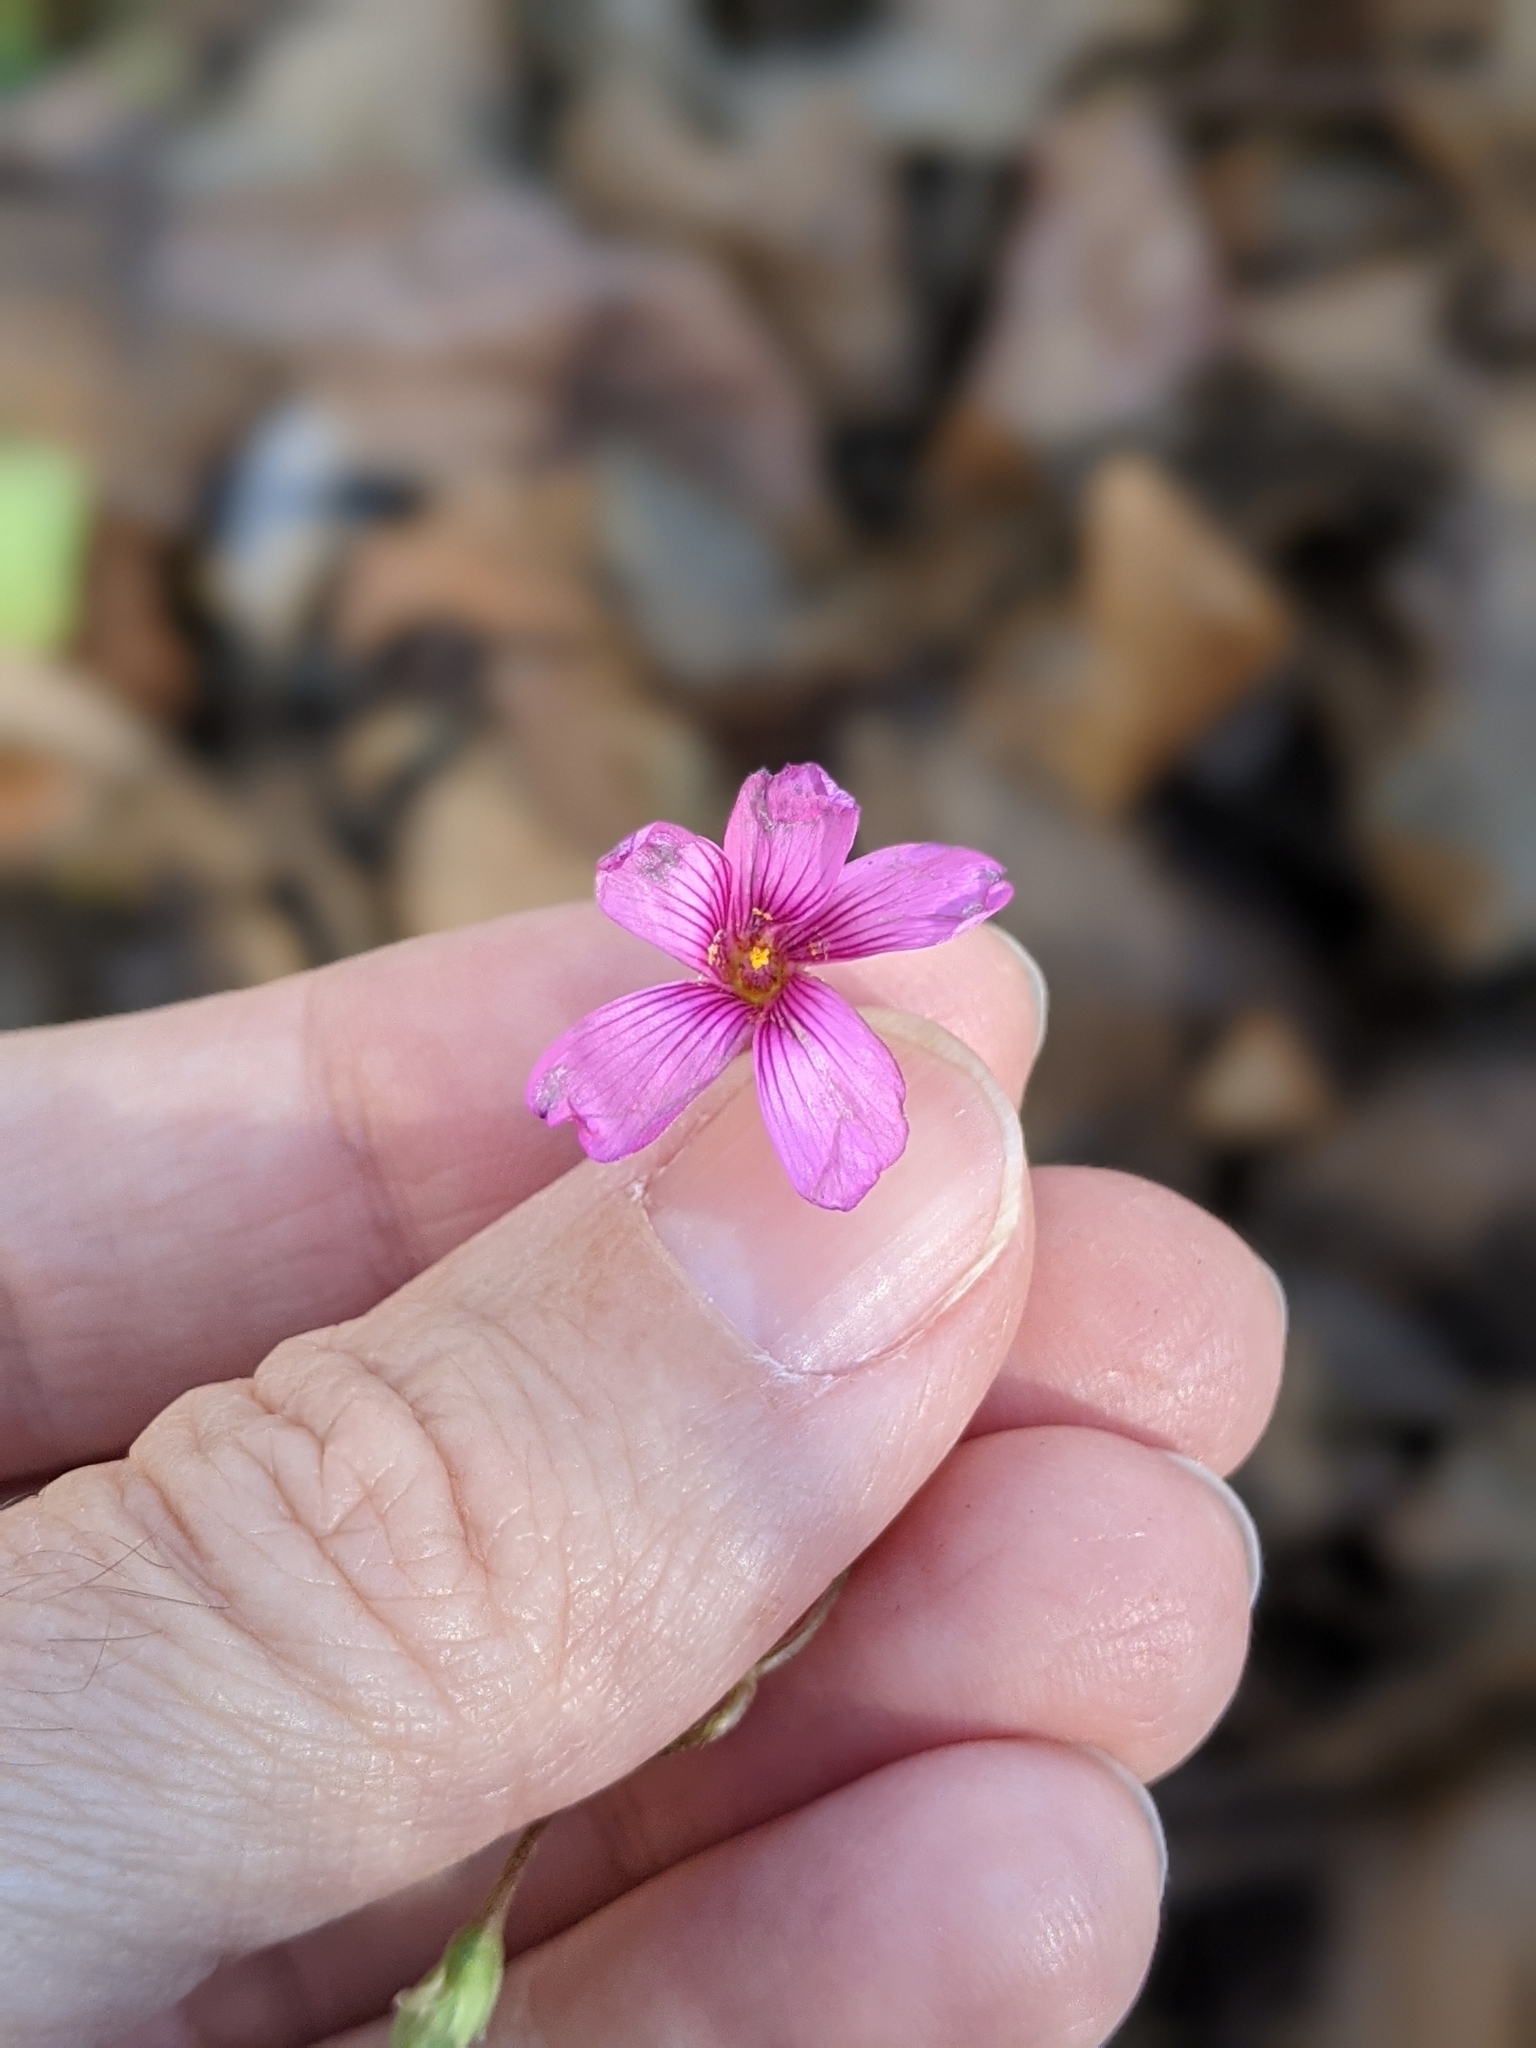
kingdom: Plantae
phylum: Tracheophyta
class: Magnoliopsida
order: Oxalidales
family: Oxalidaceae
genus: Oxalis
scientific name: Oxalis articulata
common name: Pink-sorrel
